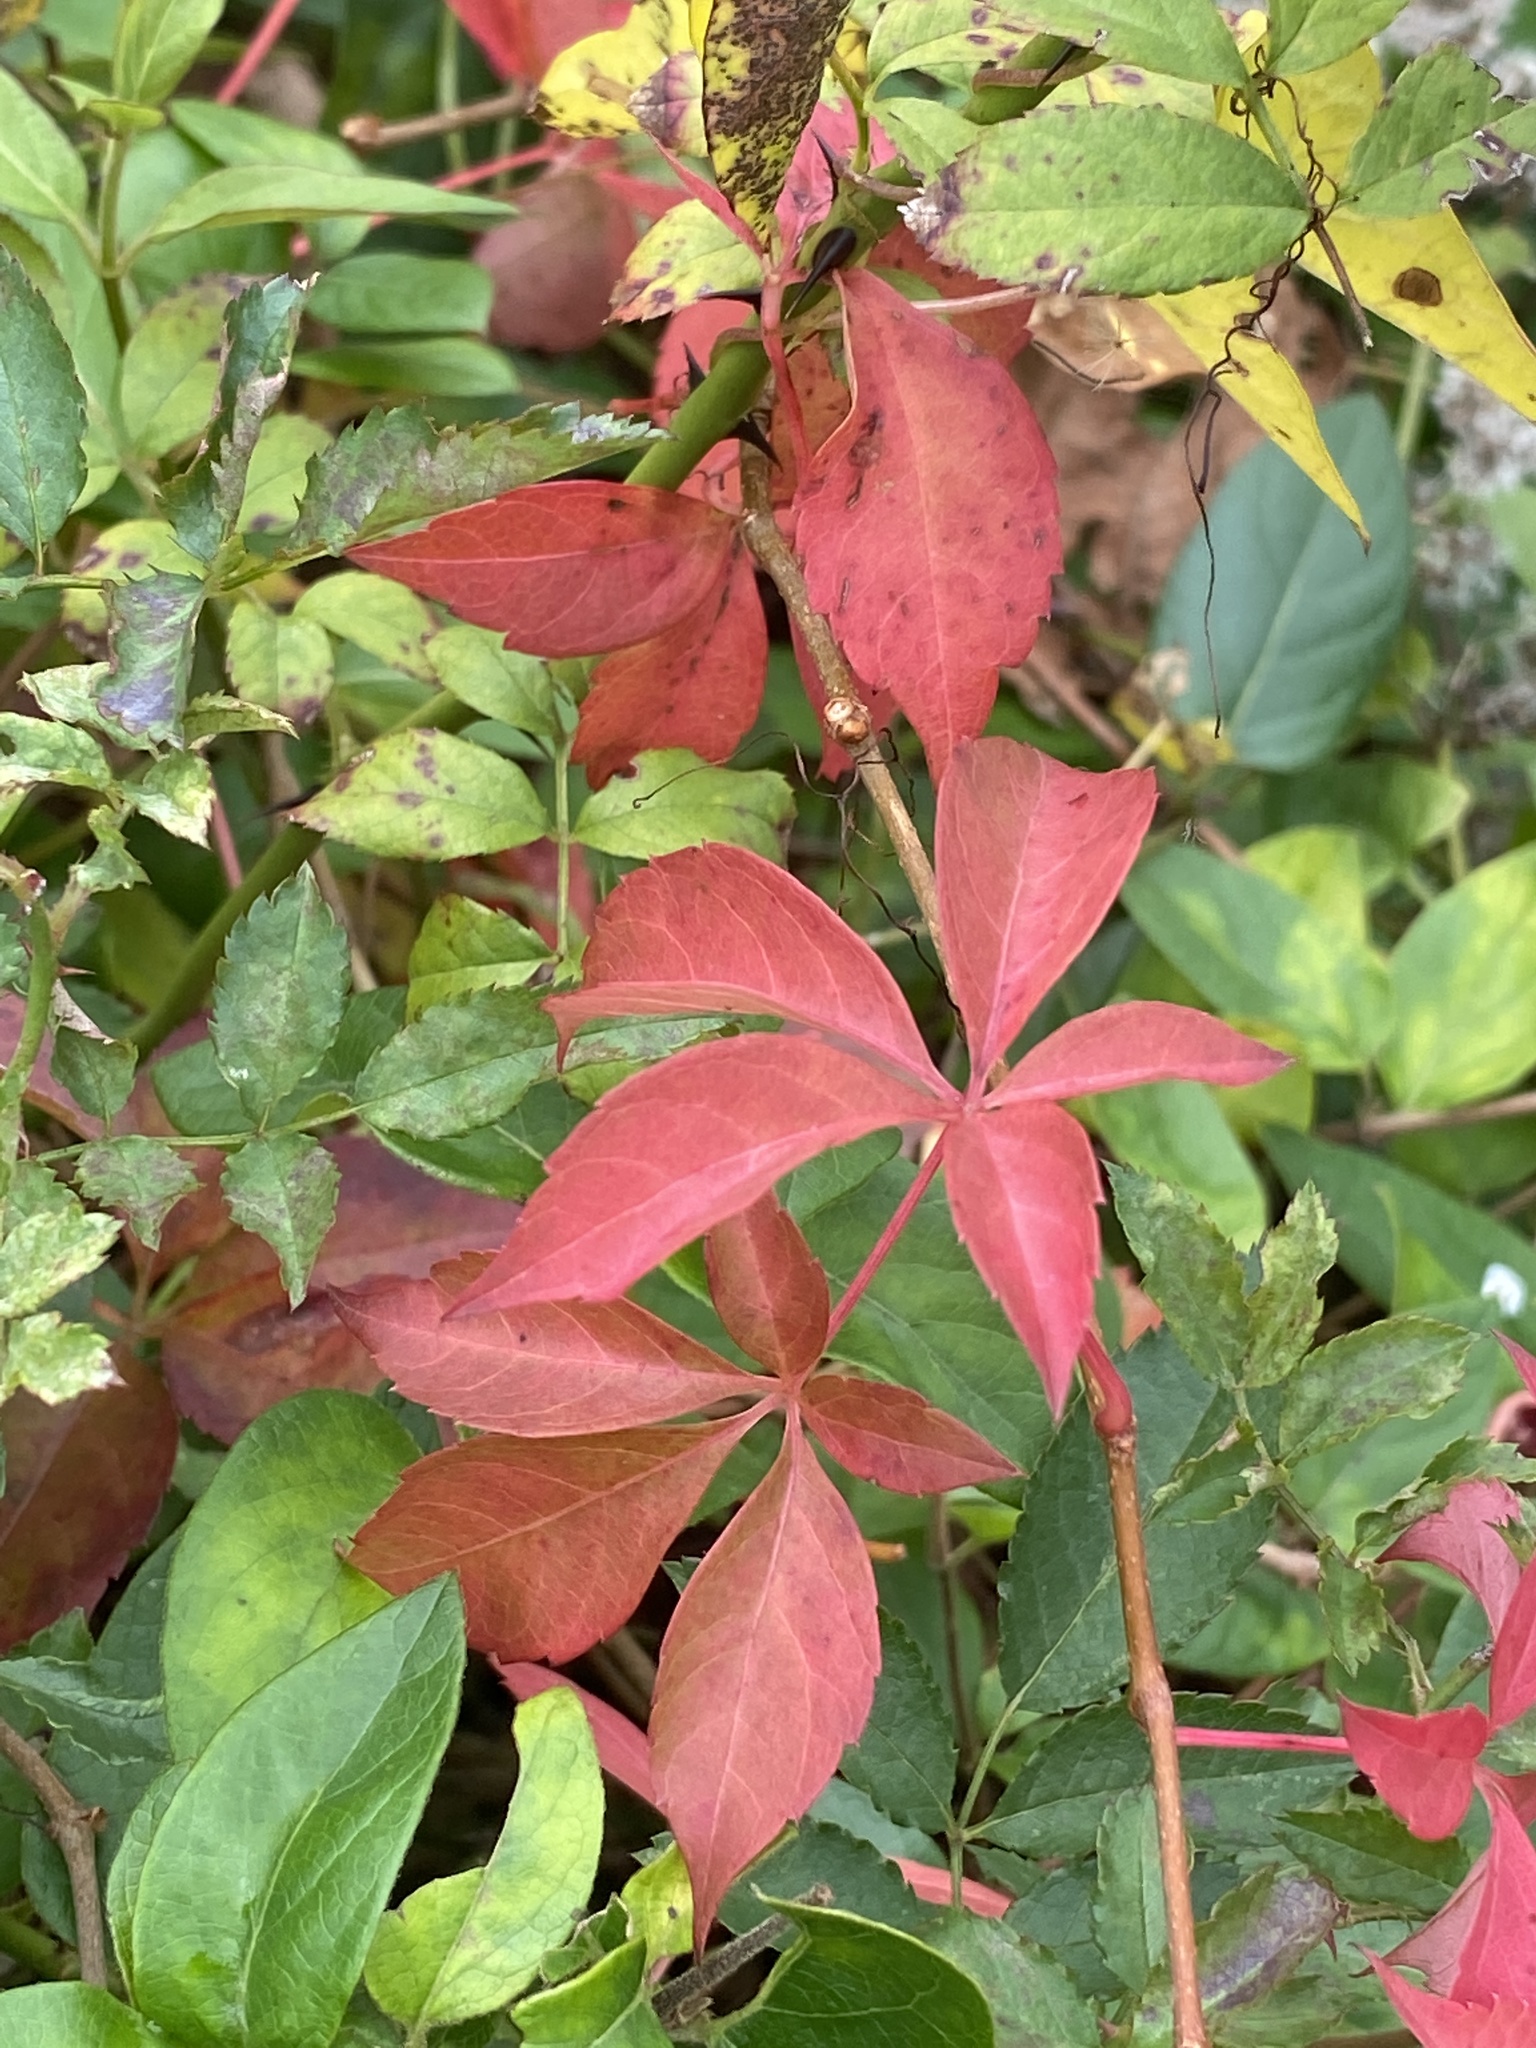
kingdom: Plantae
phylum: Tracheophyta
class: Magnoliopsida
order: Vitales
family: Vitaceae
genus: Parthenocissus
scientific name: Parthenocissus quinquefolia
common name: Virginia-creeper
